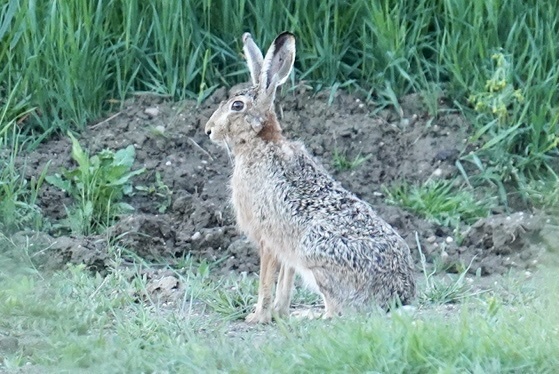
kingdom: Animalia
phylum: Chordata
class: Mammalia
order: Lagomorpha
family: Leporidae
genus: Lepus
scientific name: Lepus europaeus
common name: European hare
